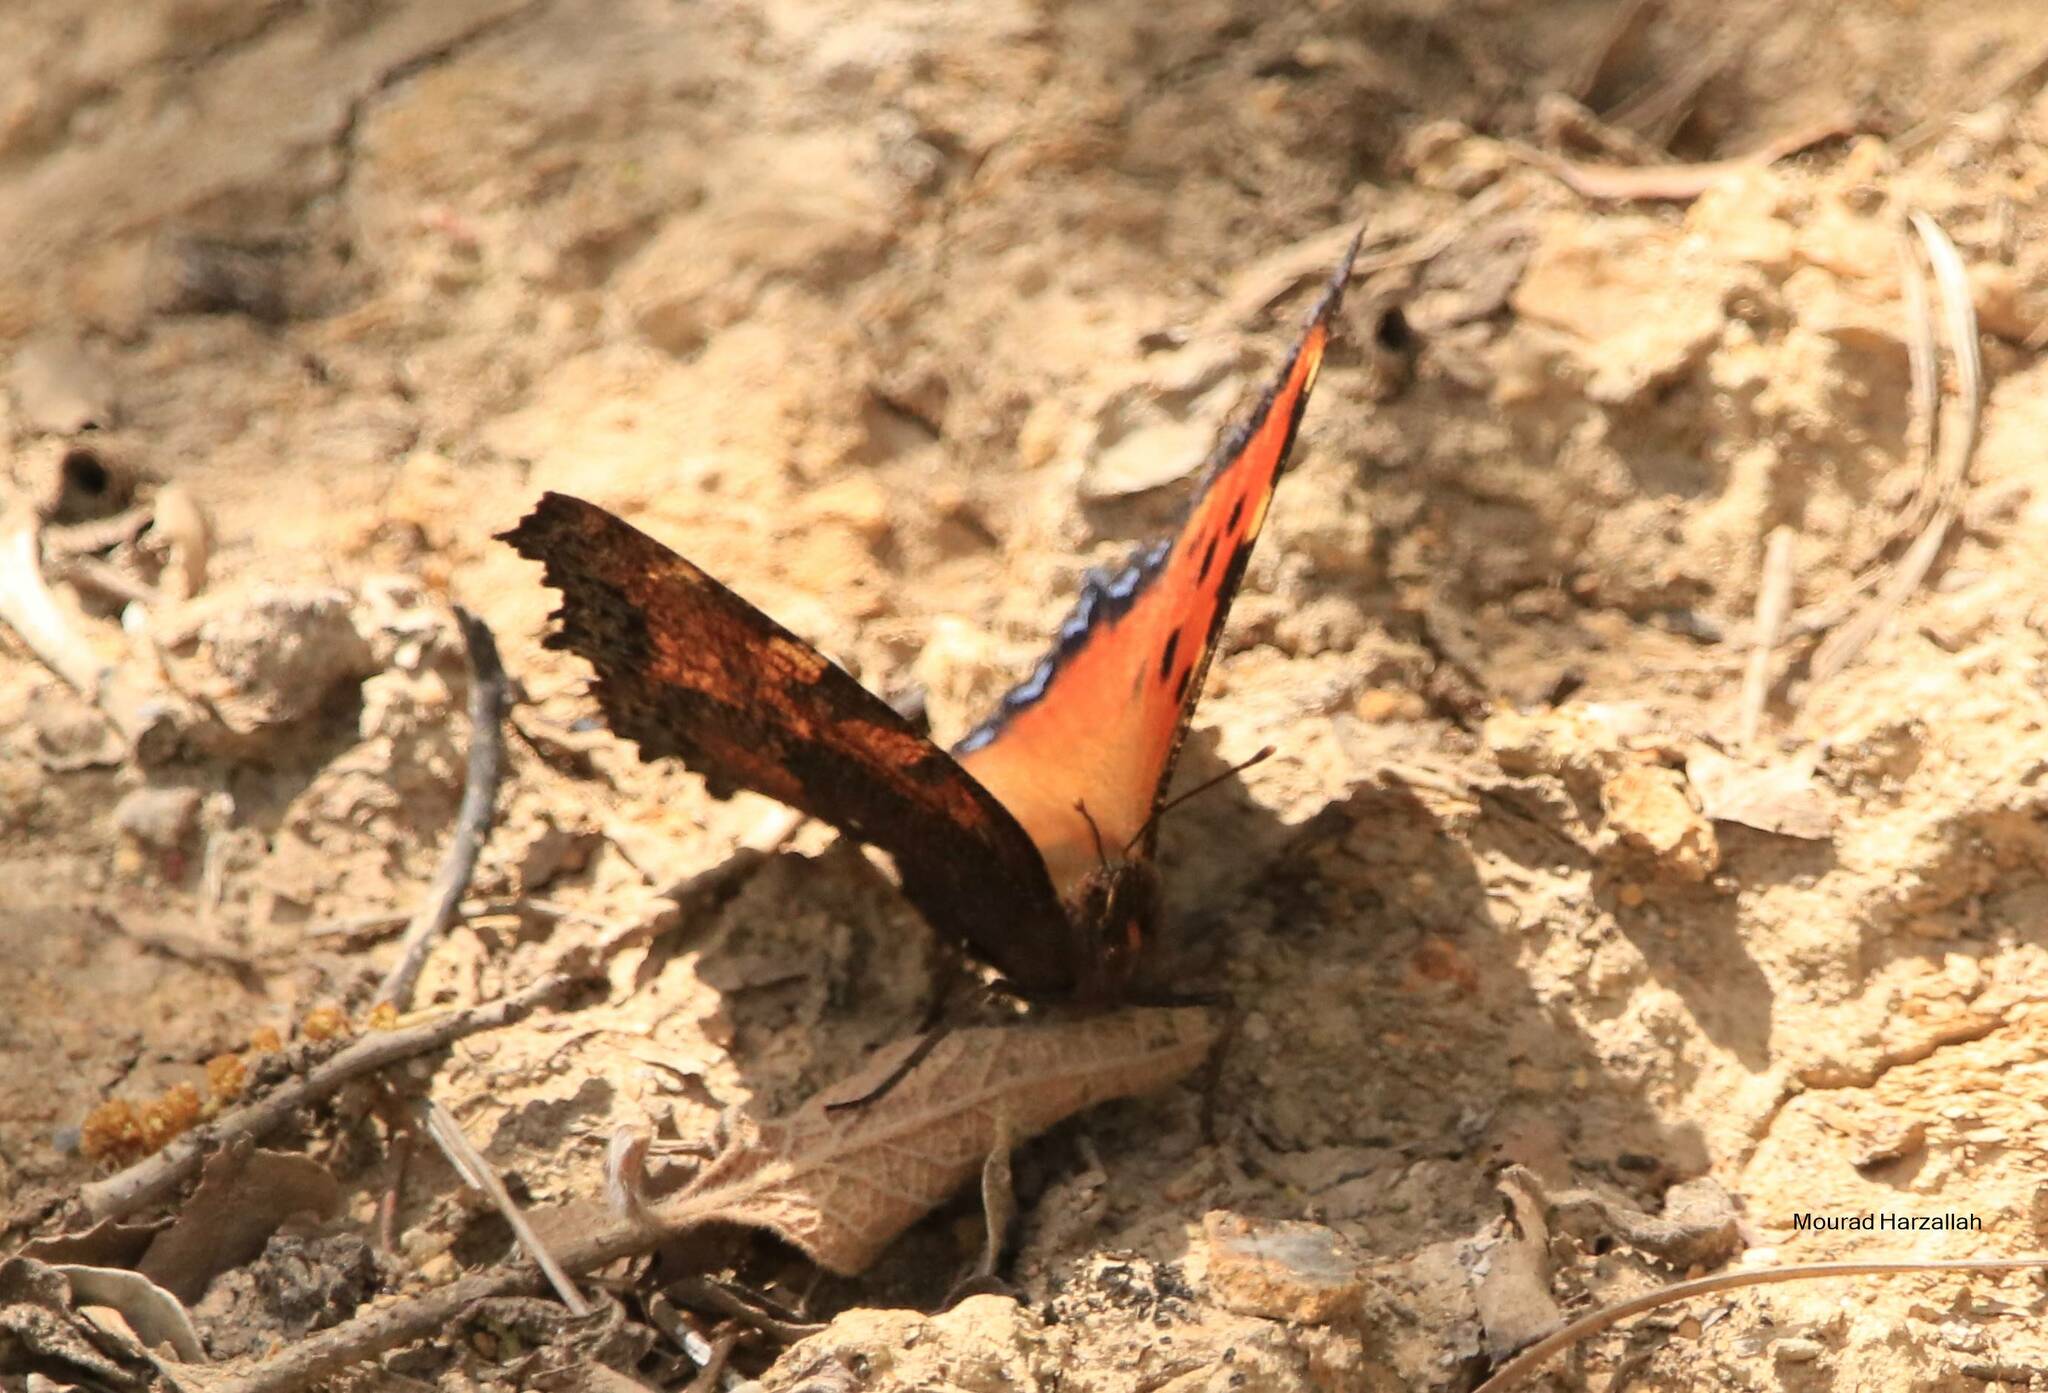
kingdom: Animalia
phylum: Arthropoda
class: Insecta
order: Lepidoptera
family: Nymphalidae
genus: Nymphalis
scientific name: Nymphalis polychloros
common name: Large tortoiseshell
